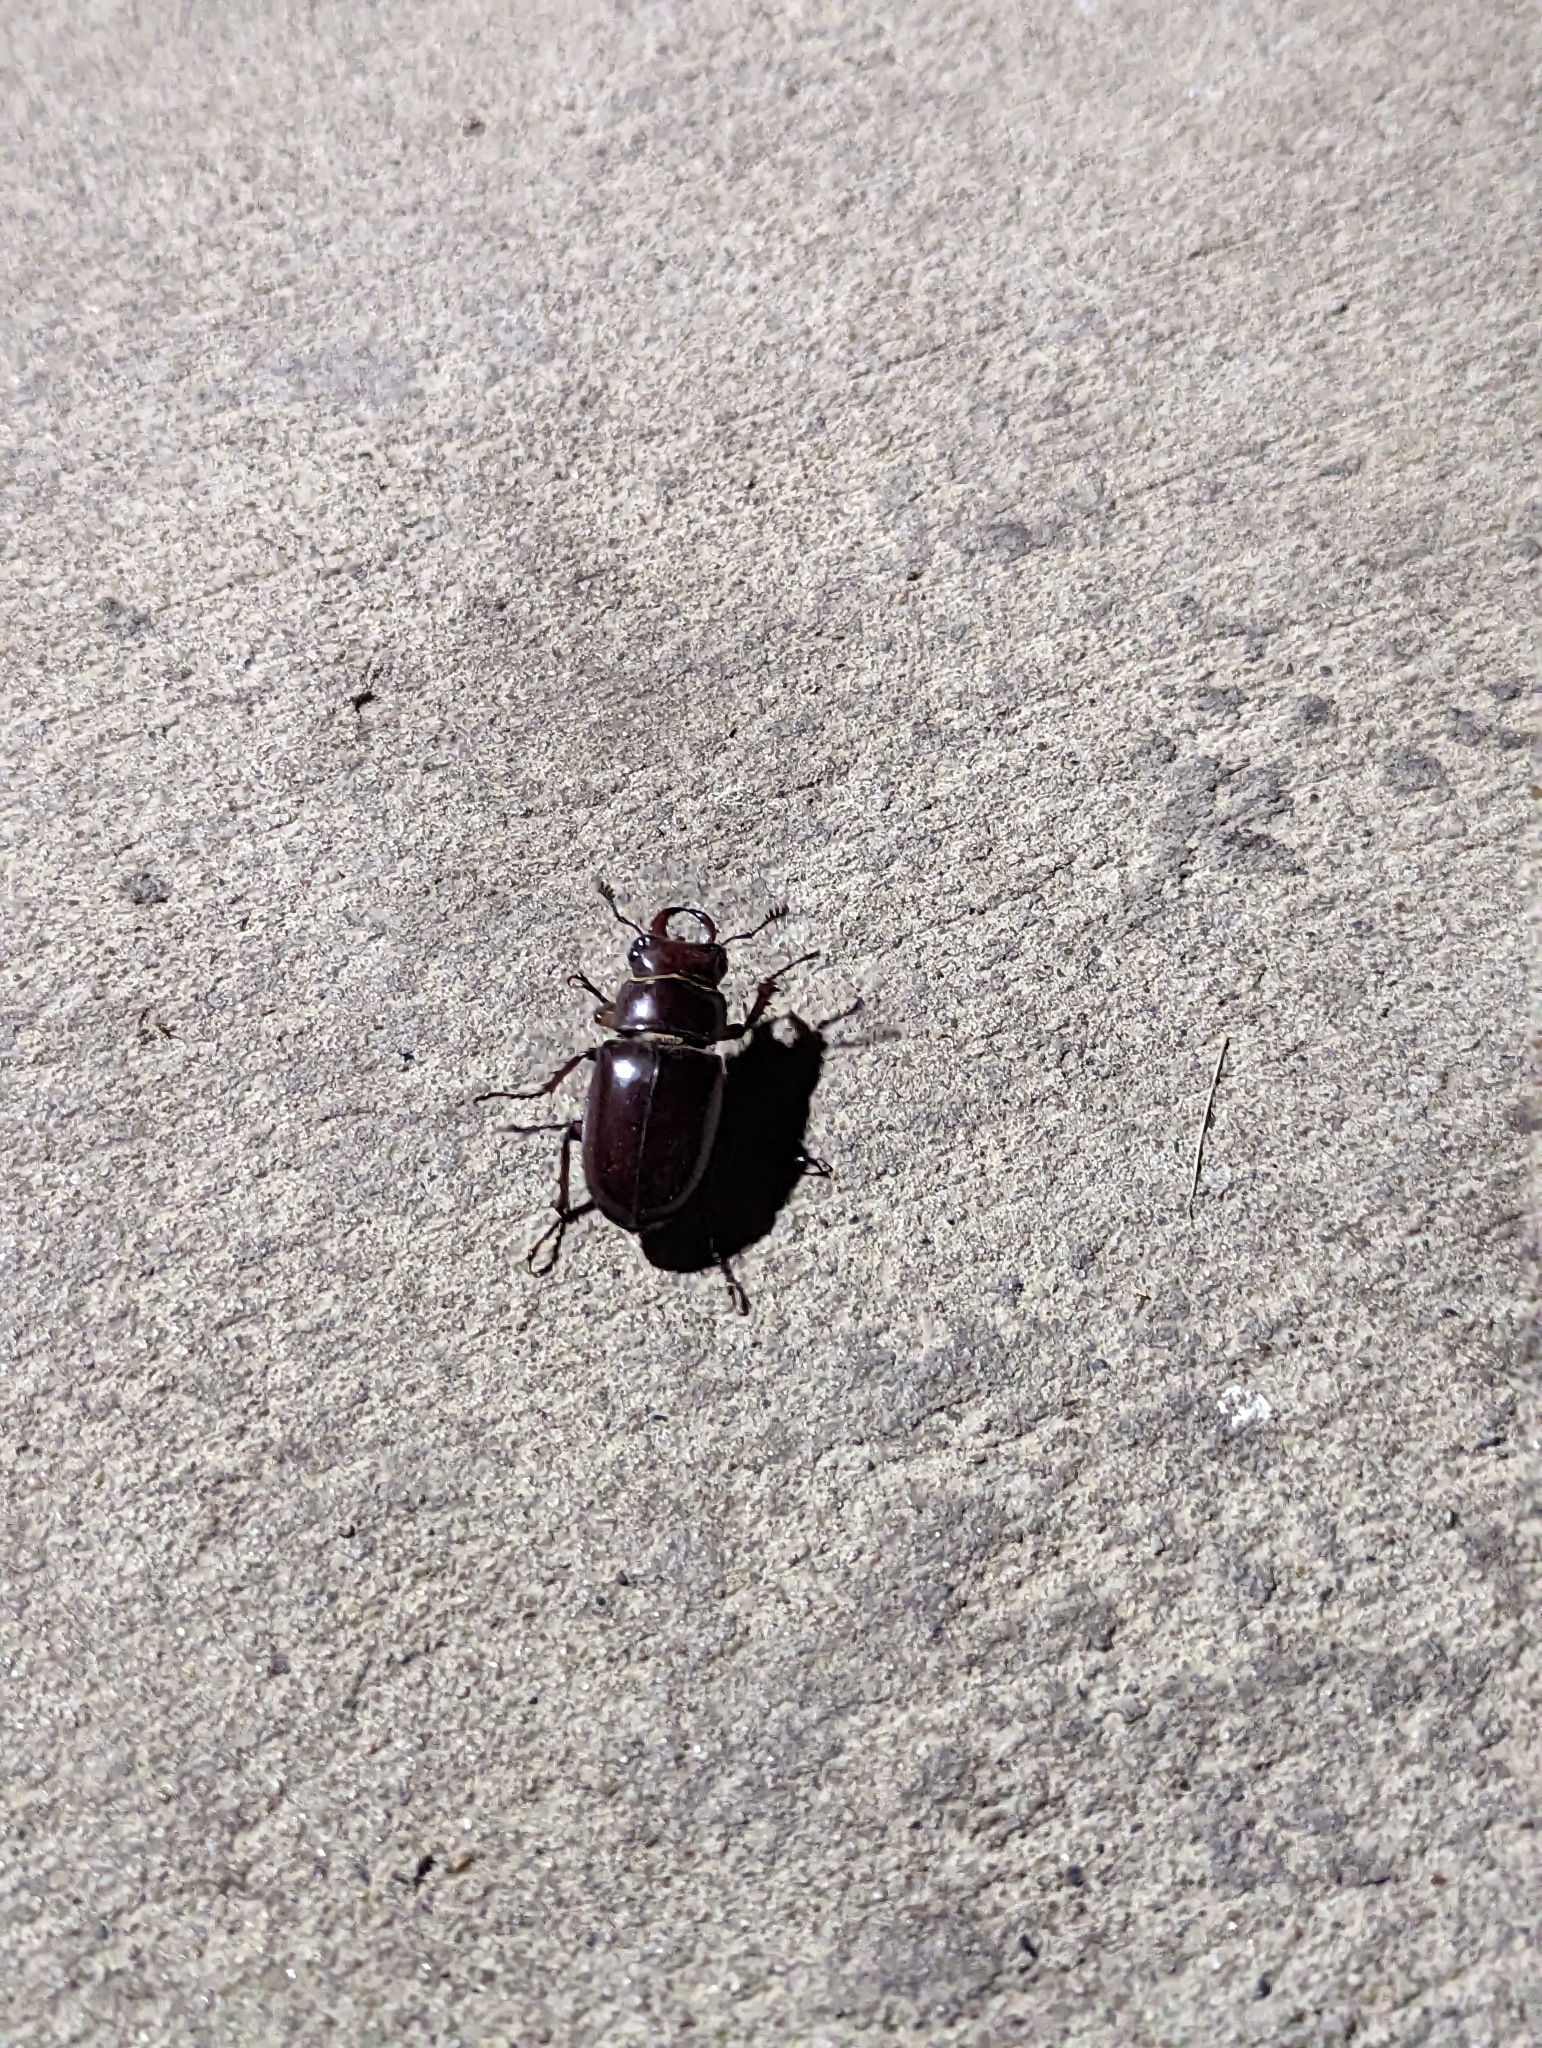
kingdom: Animalia
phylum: Arthropoda
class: Insecta
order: Coleoptera
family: Lucanidae
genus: Lucanus
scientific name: Lucanus capreolus
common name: Stag beetle
